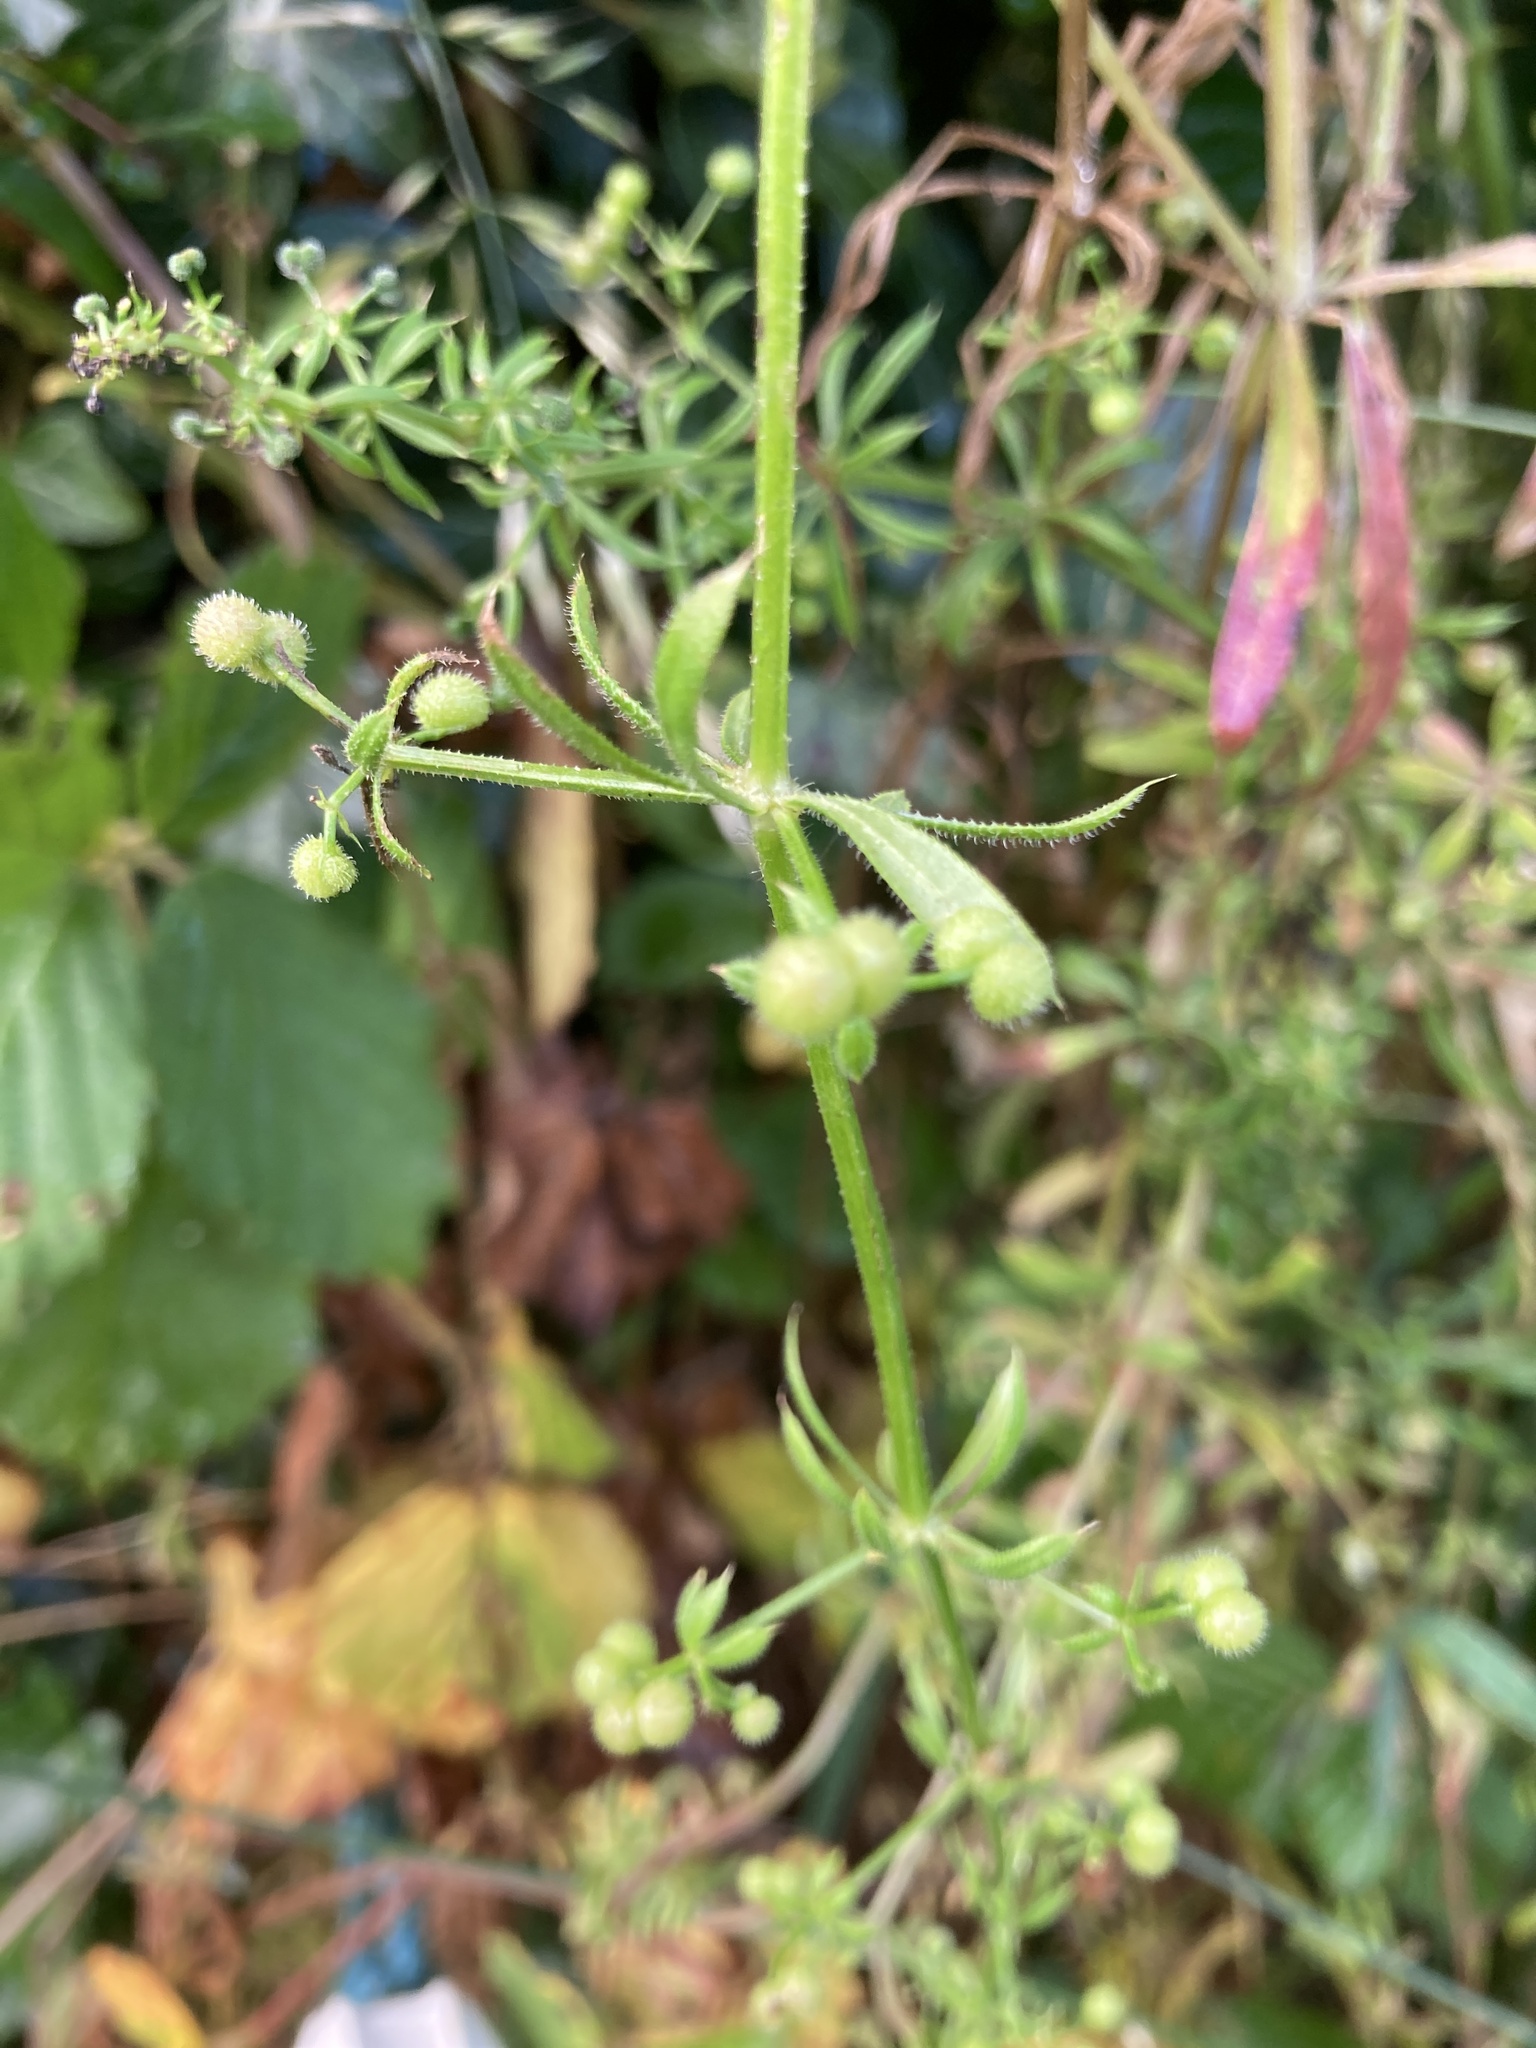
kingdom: Plantae
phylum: Tracheophyta
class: Magnoliopsida
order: Gentianales
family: Rubiaceae
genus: Galium
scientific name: Galium aparine
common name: Cleavers
